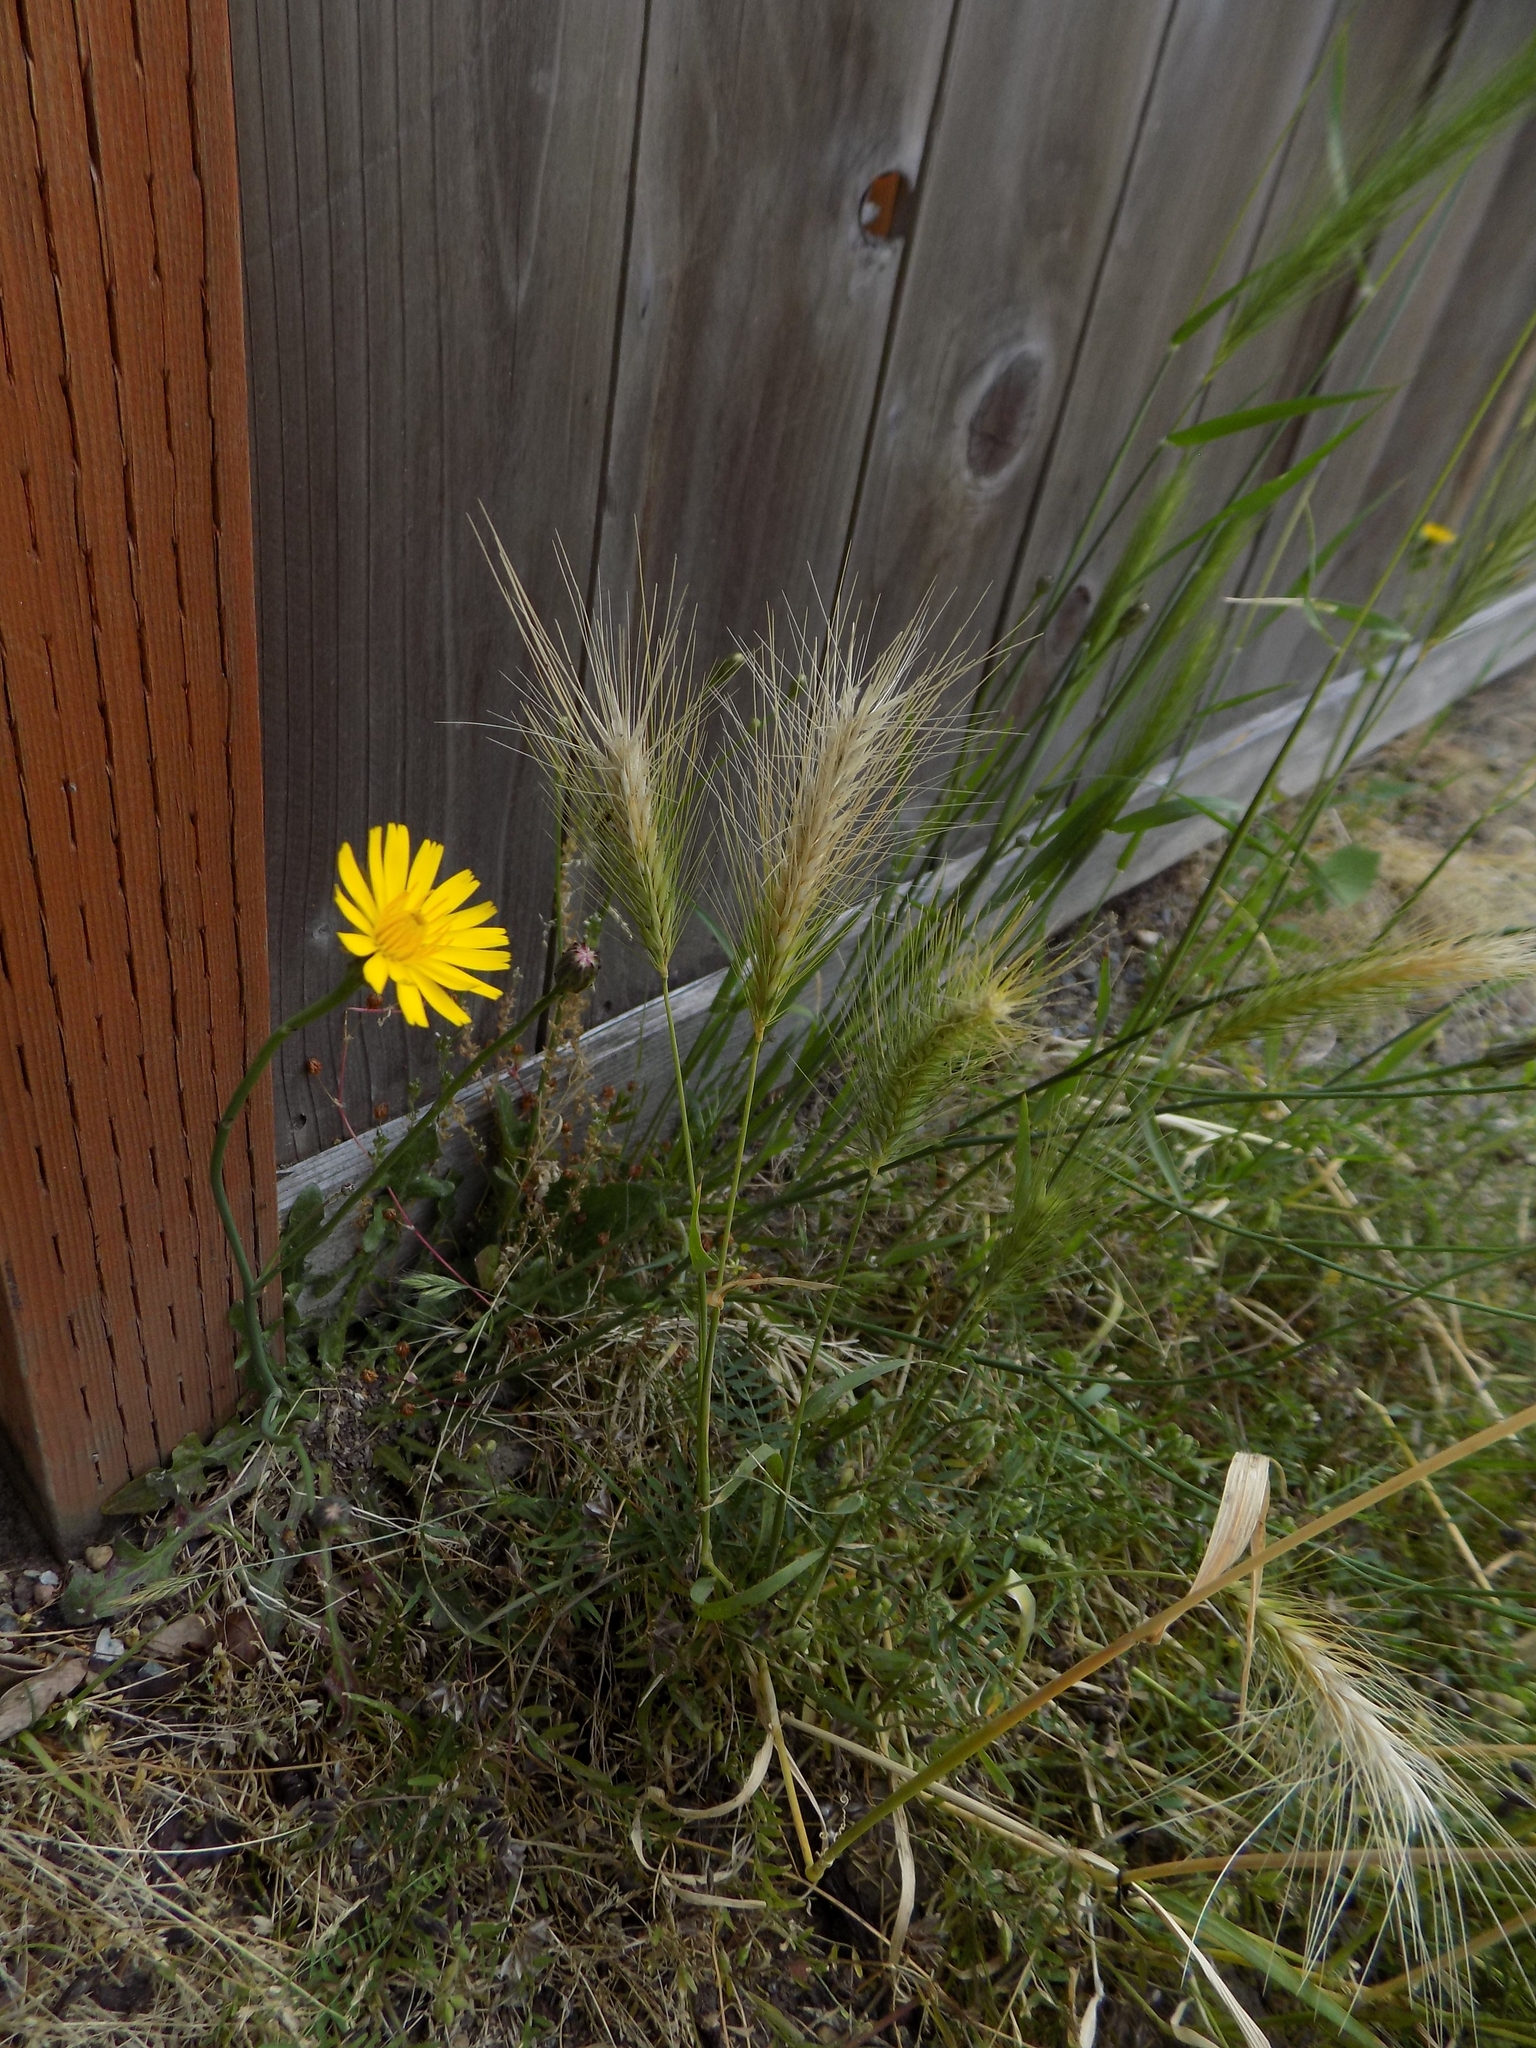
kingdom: Plantae
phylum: Tracheophyta
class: Liliopsida
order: Poales
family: Poaceae
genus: Hordeum
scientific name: Hordeum murinum
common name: Wall barley
